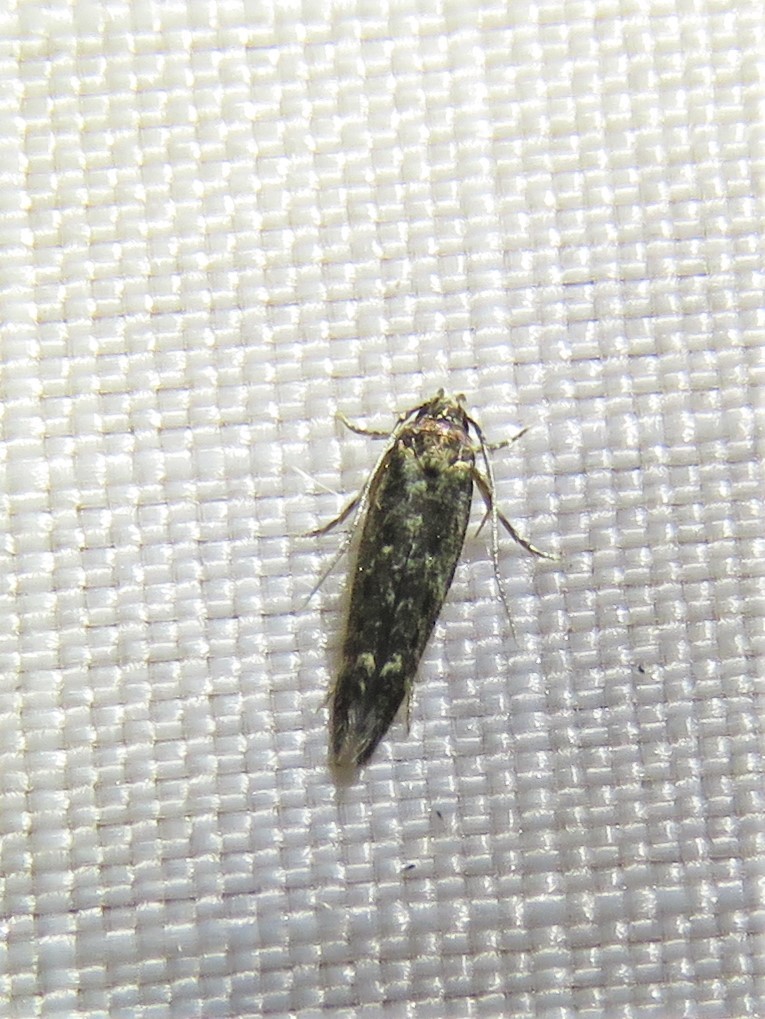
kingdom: Animalia
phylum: Arthropoda
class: Insecta
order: Lepidoptera
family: Scythrididae
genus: Scythris
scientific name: Scythris trivinctella
